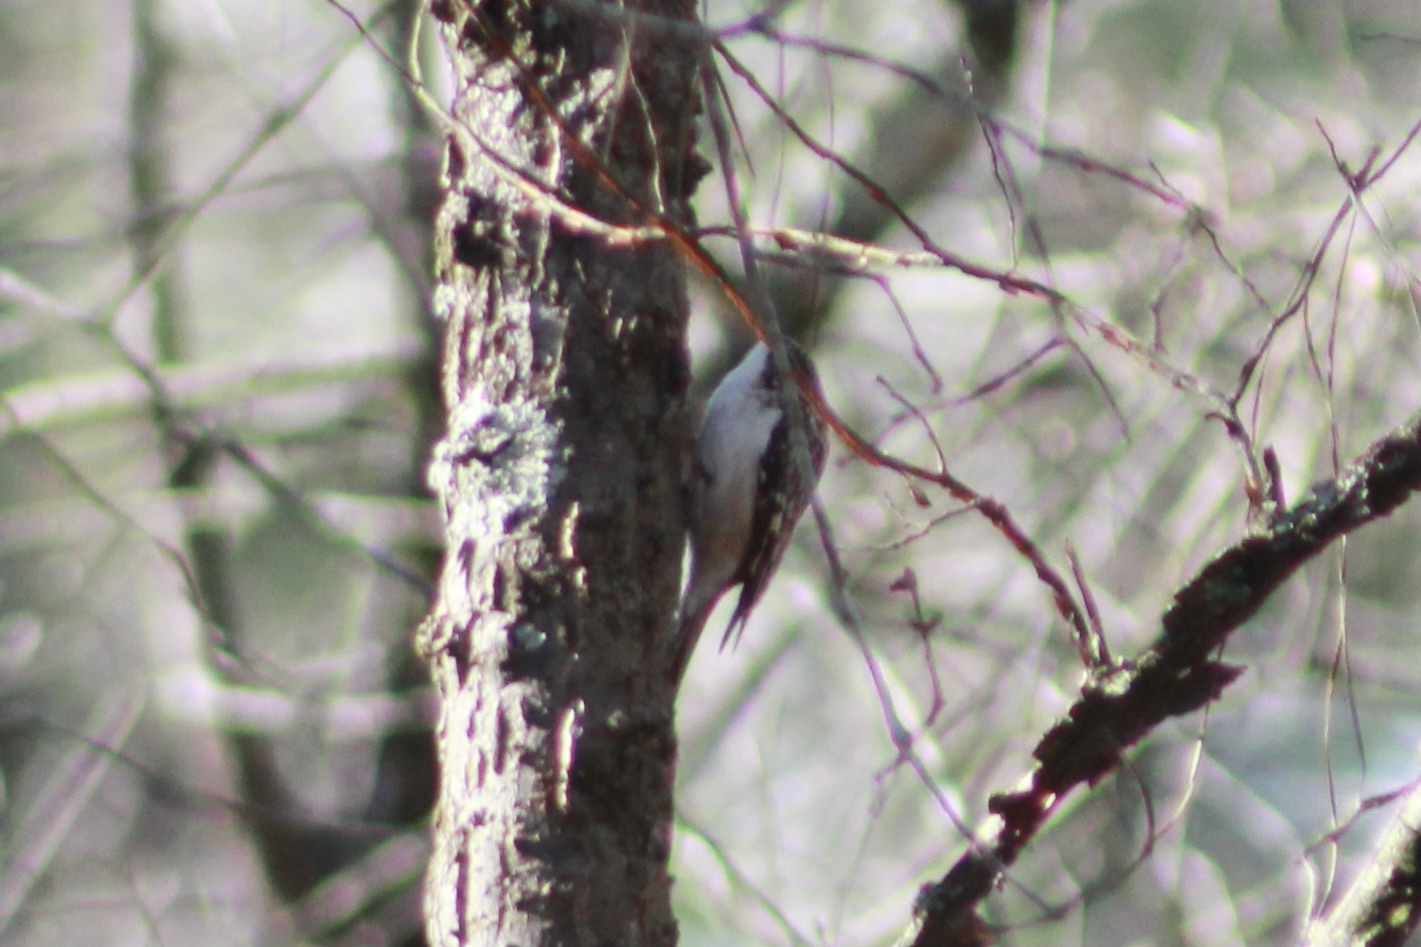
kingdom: Animalia
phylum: Chordata
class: Aves
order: Passeriformes
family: Certhiidae
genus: Certhia
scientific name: Certhia americana
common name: Brown creeper
